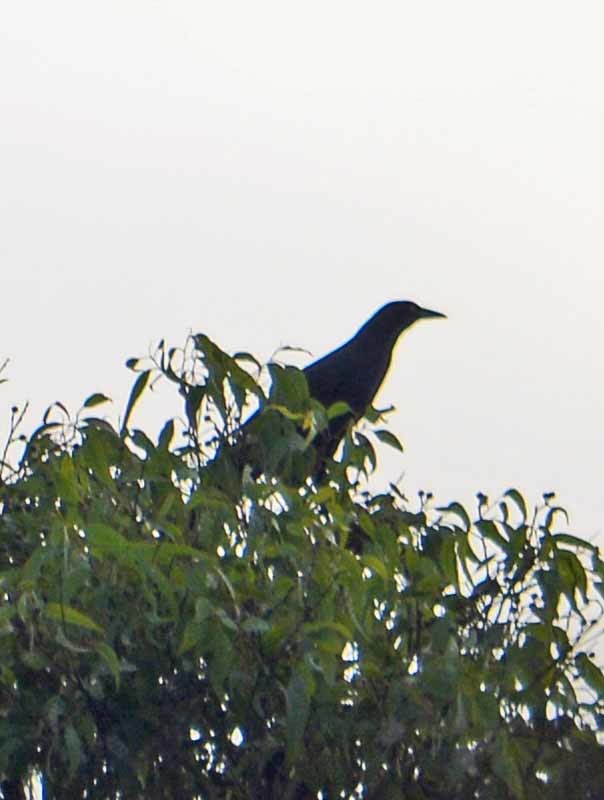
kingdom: Animalia
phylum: Chordata
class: Aves
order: Passeriformes
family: Icteridae
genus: Quiscalus
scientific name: Quiscalus mexicanus
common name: Great-tailed grackle
